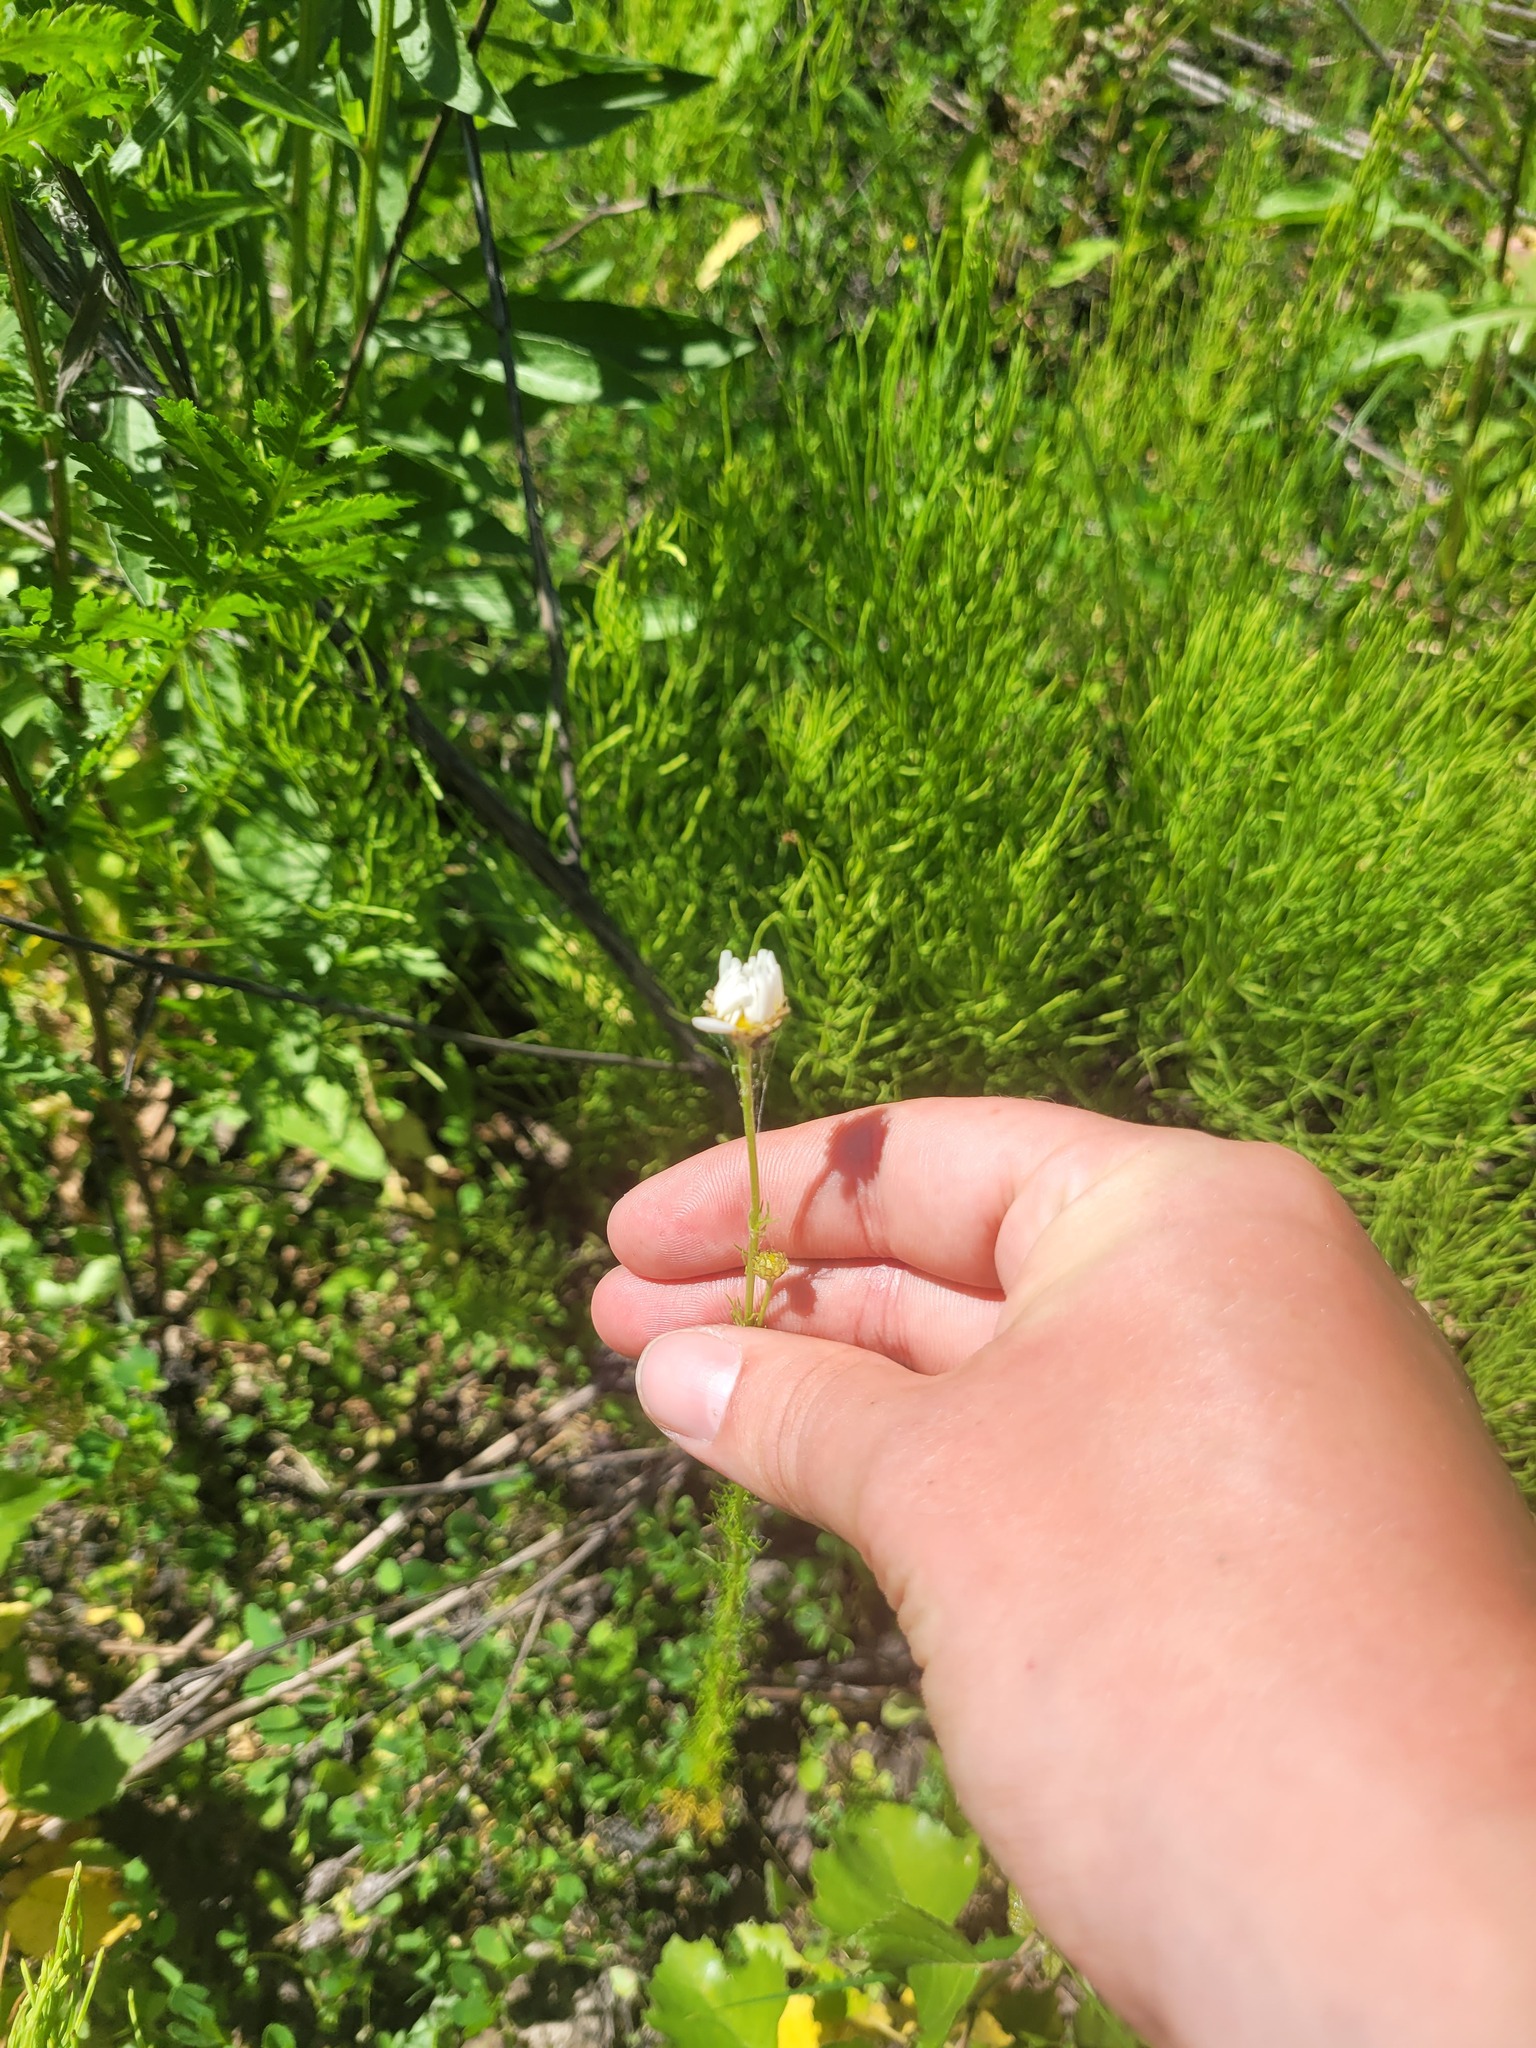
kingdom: Plantae
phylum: Tracheophyta
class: Magnoliopsida
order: Asterales
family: Asteraceae
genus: Tripleurospermum
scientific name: Tripleurospermum inodorum
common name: Scentless mayweed
